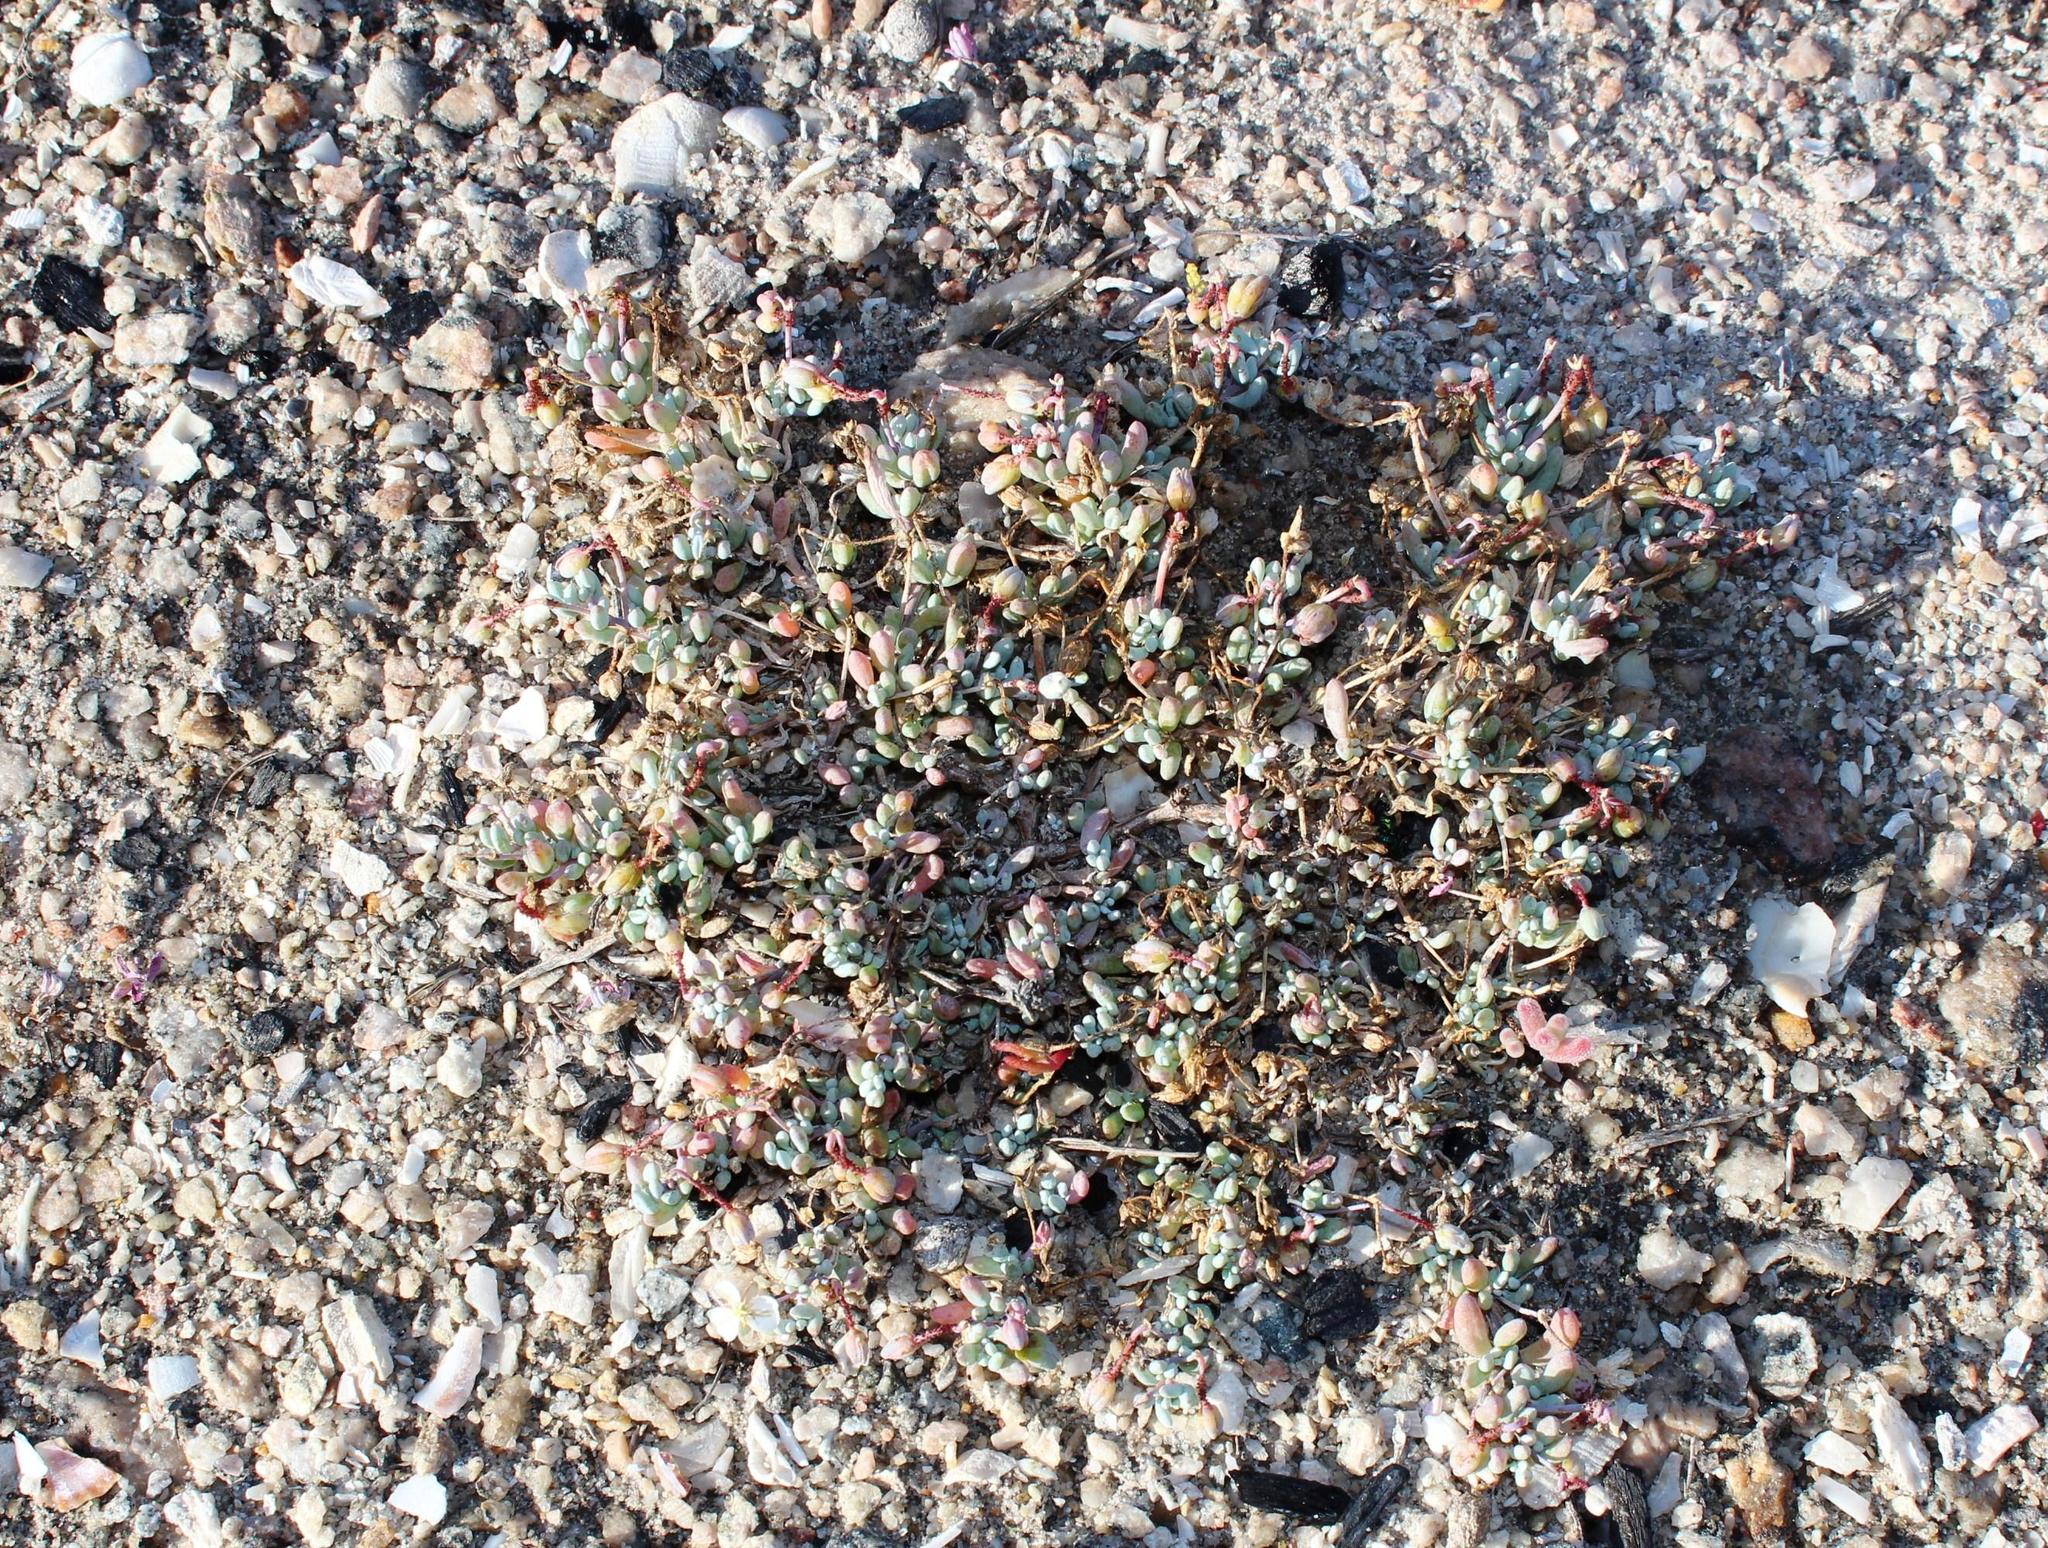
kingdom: Plantae
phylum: Tracheophyta
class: Magnoliopsida
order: Caryophyllales
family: Kewaceae
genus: Kewa
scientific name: Kewa angrae-pequenae
